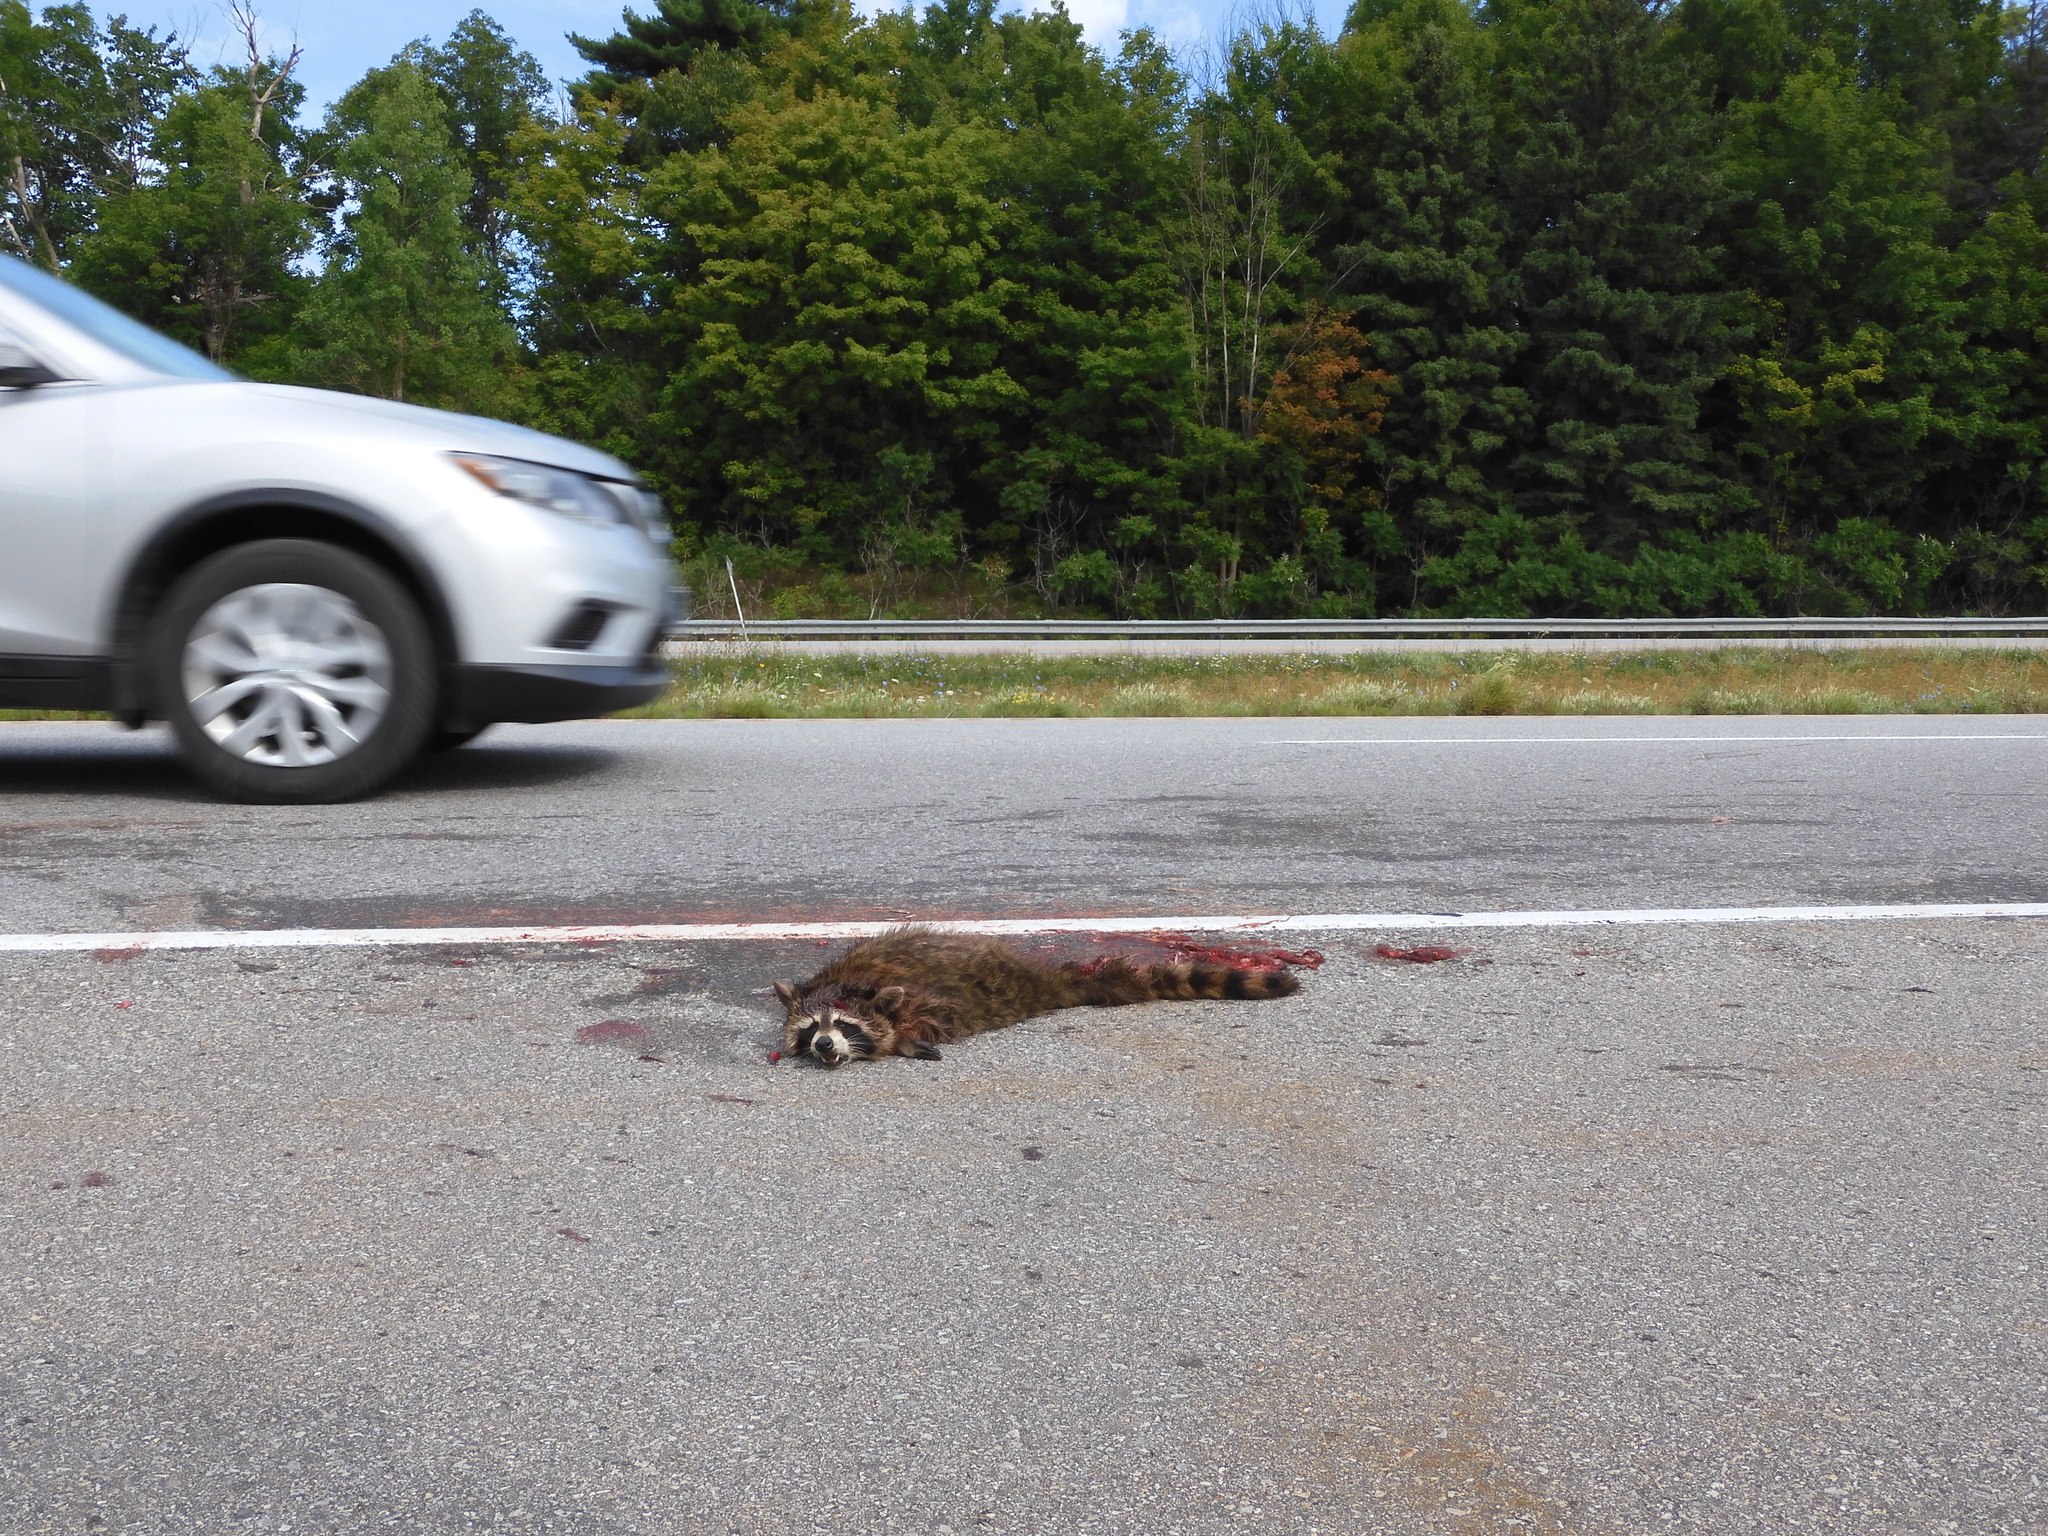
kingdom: Animalia
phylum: Chordata
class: Mammalia
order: Carnivora
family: Procyonidae
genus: Procyon
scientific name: Procyon lotor
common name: Raccoon
